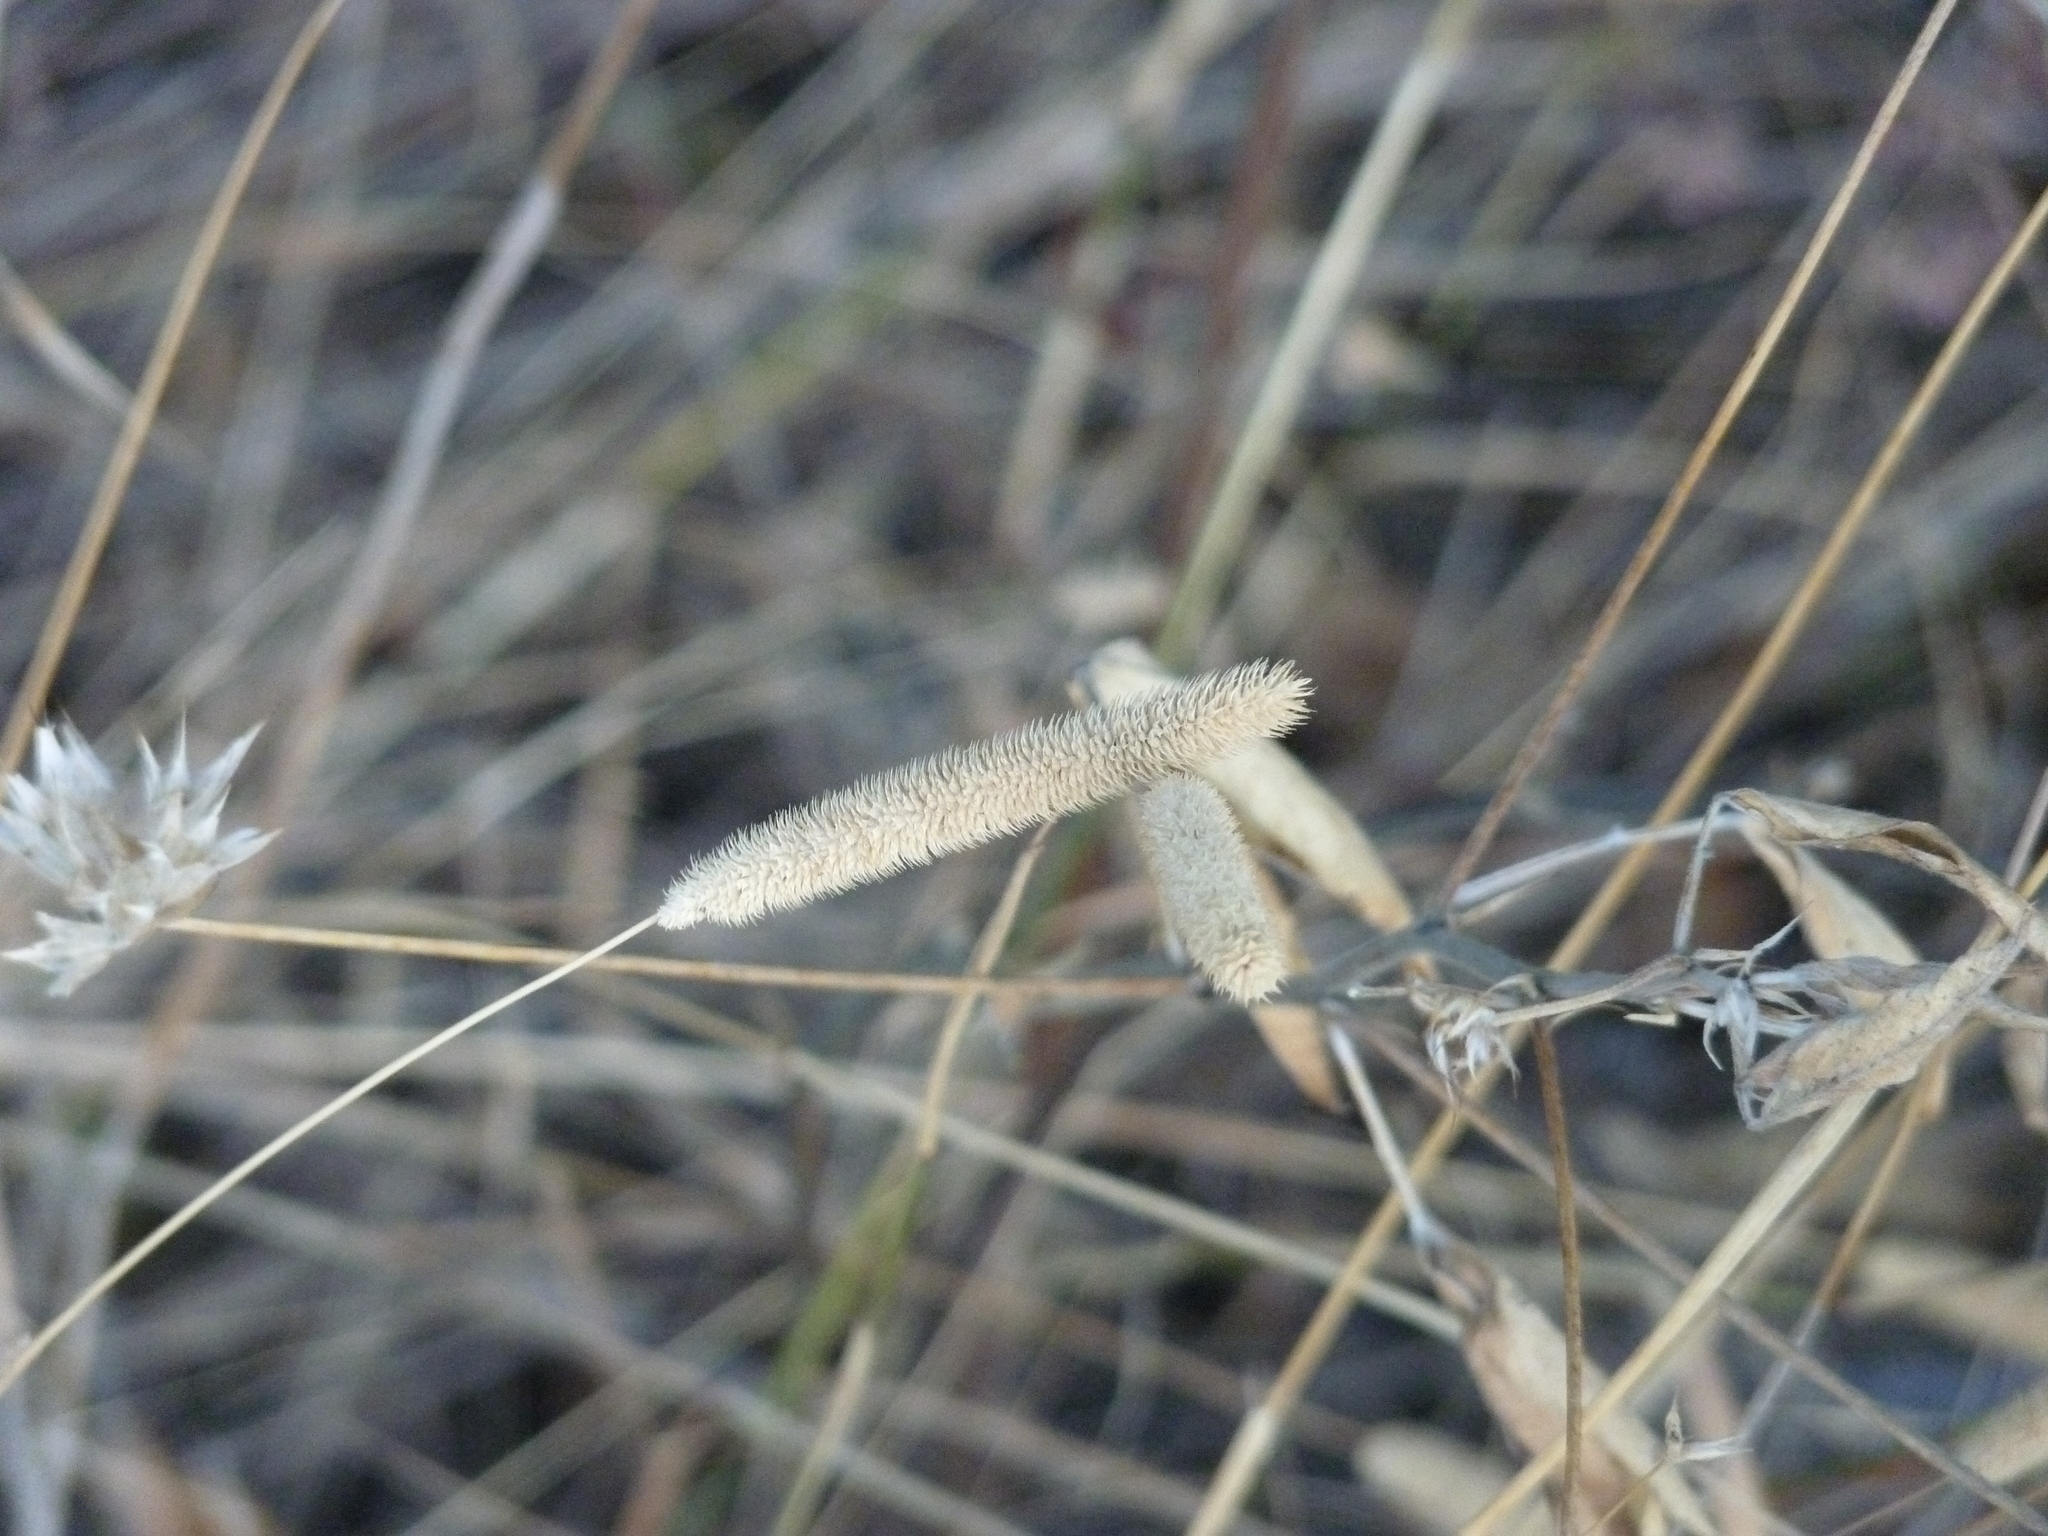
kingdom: Plantae
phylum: Tracheophyta
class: Liliopsida
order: Poales
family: Poaceae
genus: Phleum
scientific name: Phleum pratense
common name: Timothy grass
